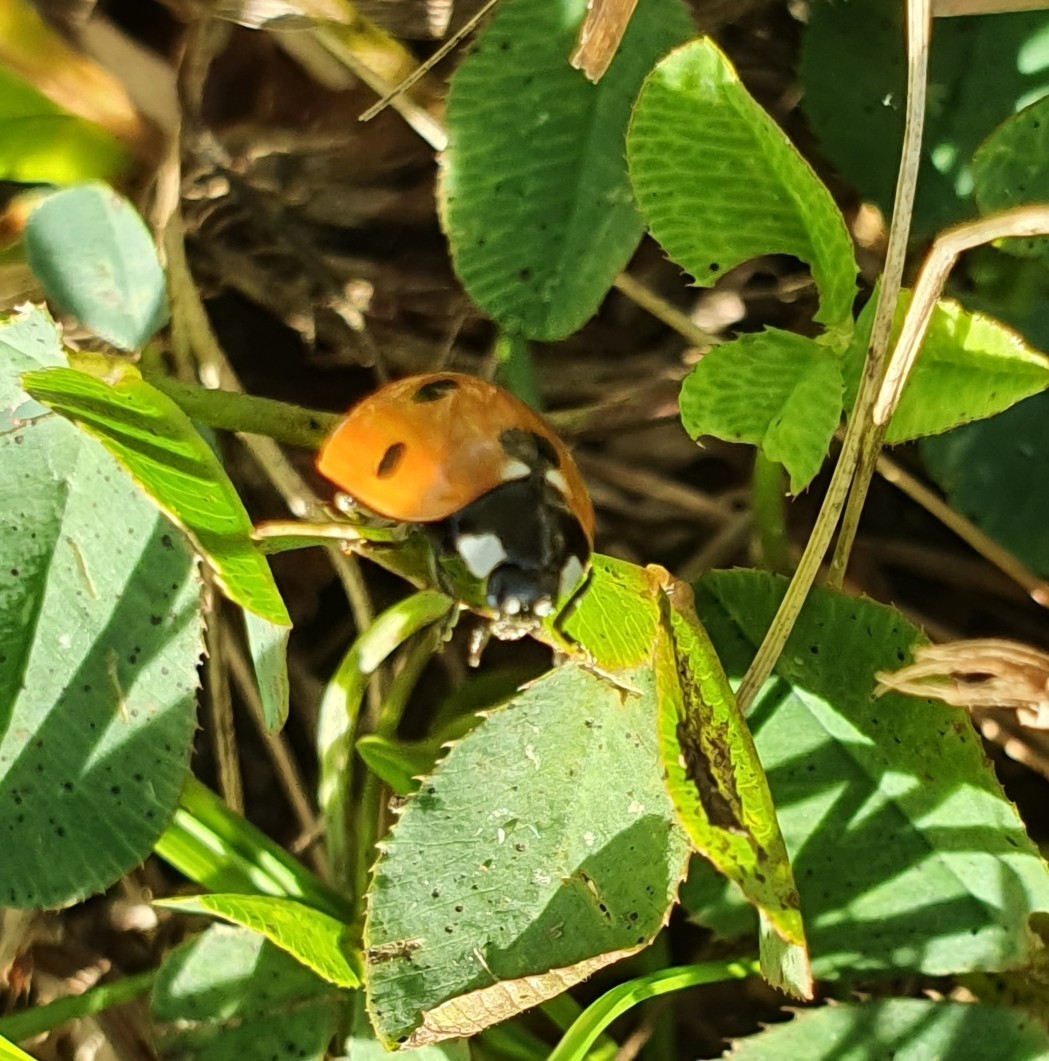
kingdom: Animalia
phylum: Arthropoda
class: Insecta
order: Coleoptera
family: Coccinellidae
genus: Coccinella
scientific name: Coccinella septempunctata
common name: Sevenspotted lady beetle
